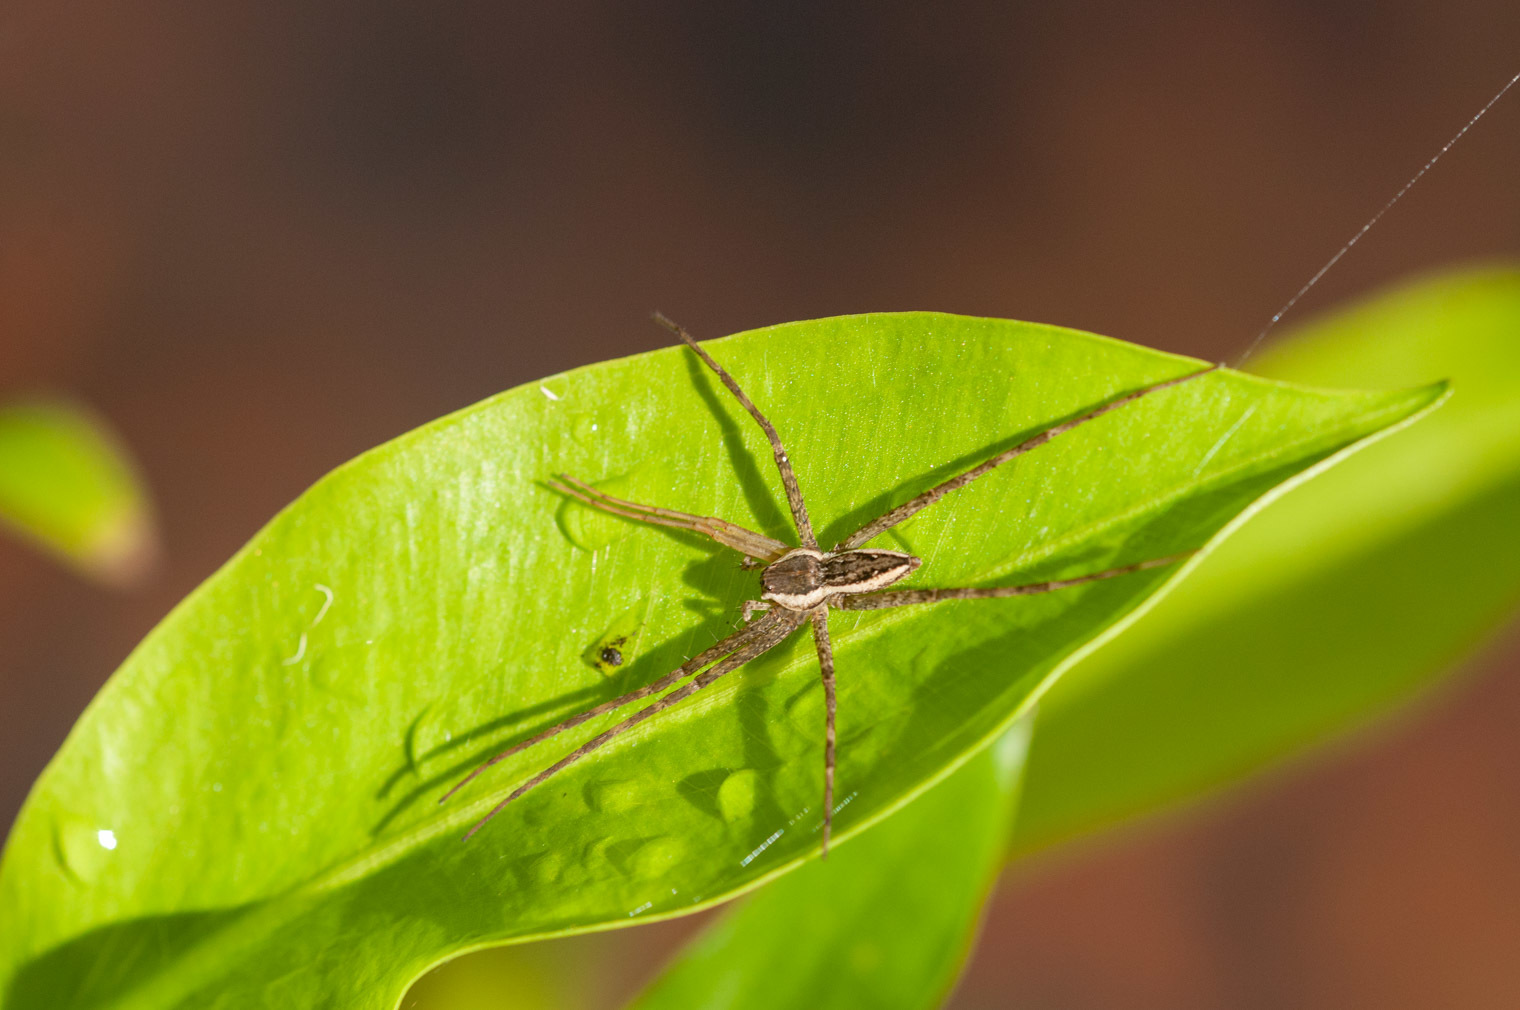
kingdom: Animalia
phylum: Arthropoda
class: Arachnida
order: Araneae
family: Pisauridae
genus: Megadolomedes
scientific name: Megadolomedes trux
